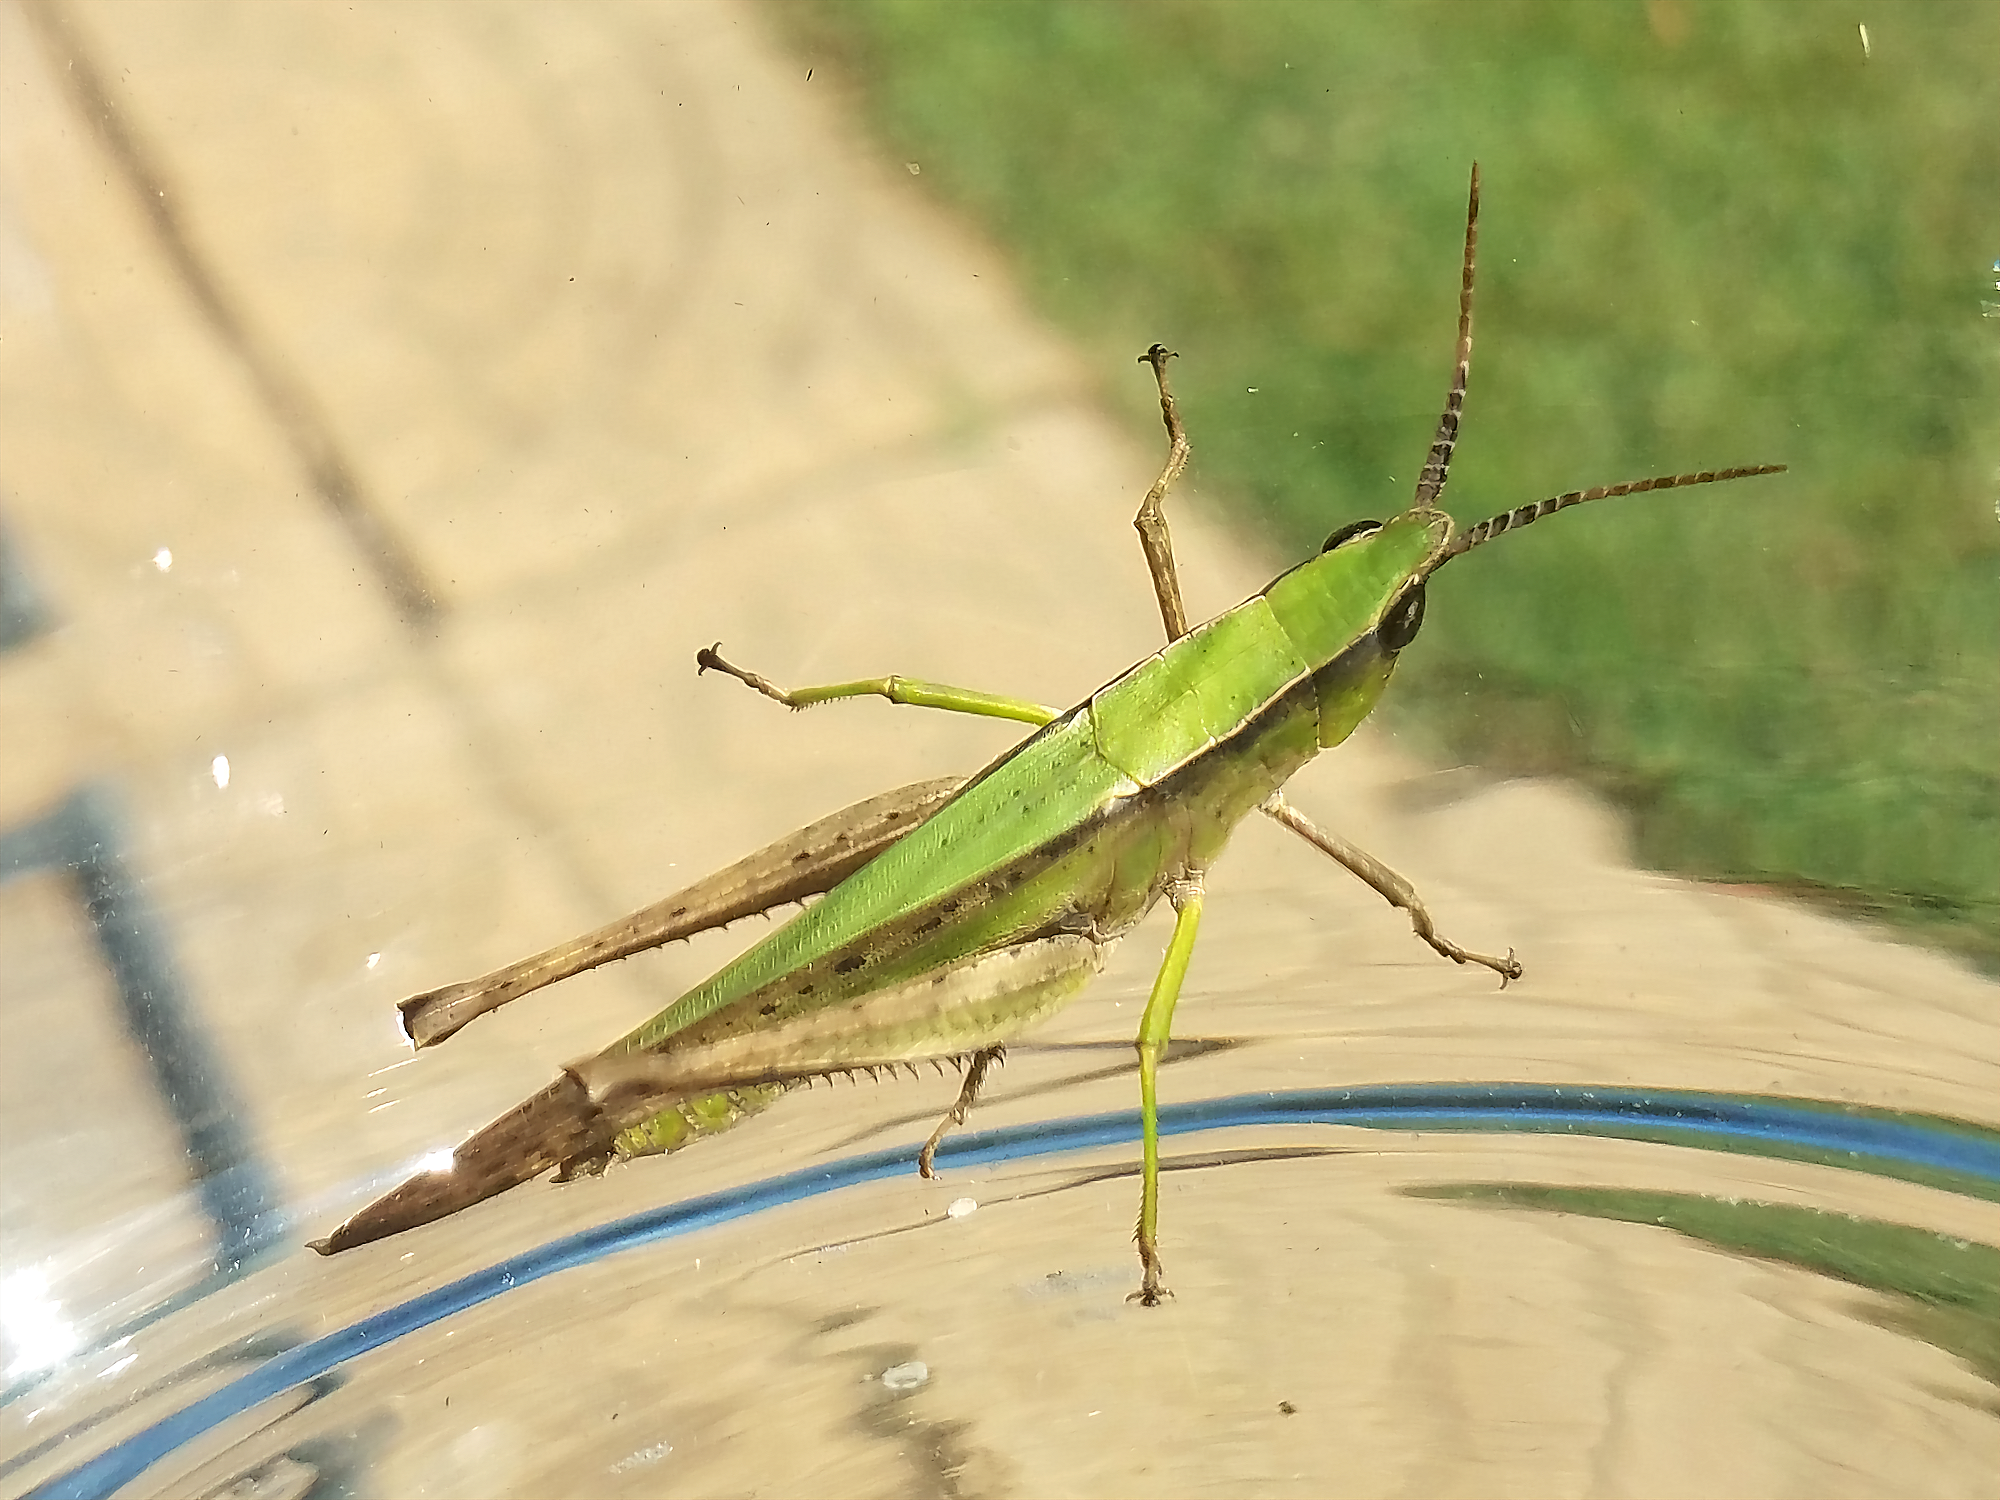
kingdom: Animalia
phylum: Arthropoda
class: Insecta
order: Orthoptera
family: Acrididae
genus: Metaleptea
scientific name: Metaleptea brevicornis
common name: Clipped-wing grasshopper
